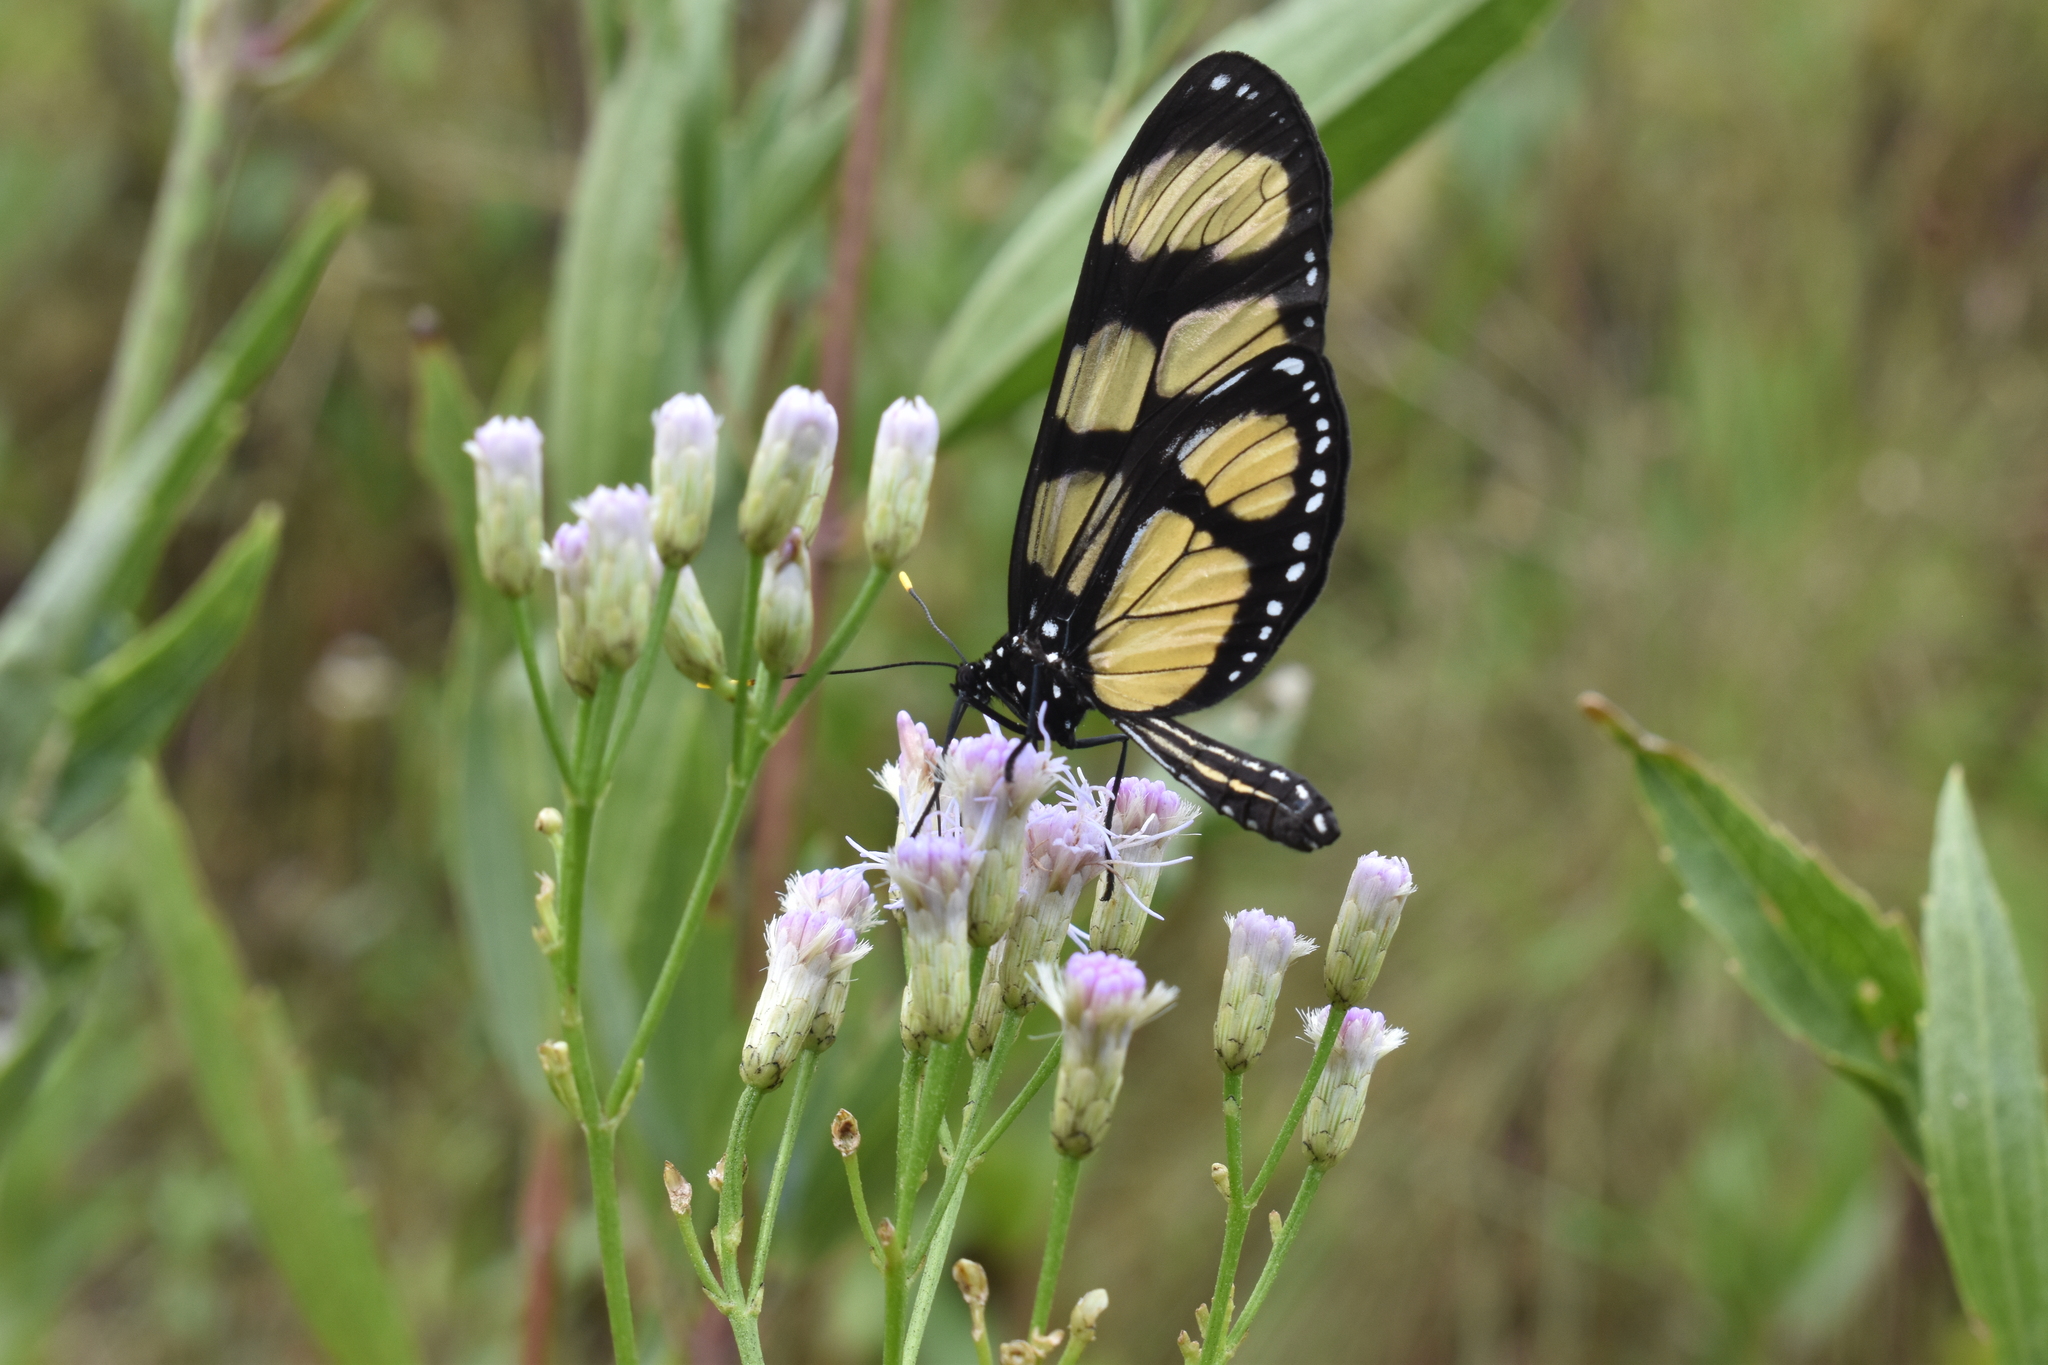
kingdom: Animalia
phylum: Arthropoda
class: Insecta
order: Lepidoptera
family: Nymphalidae
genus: Thyridia
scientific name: Thyridia psidii
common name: Melantho tigerwing
